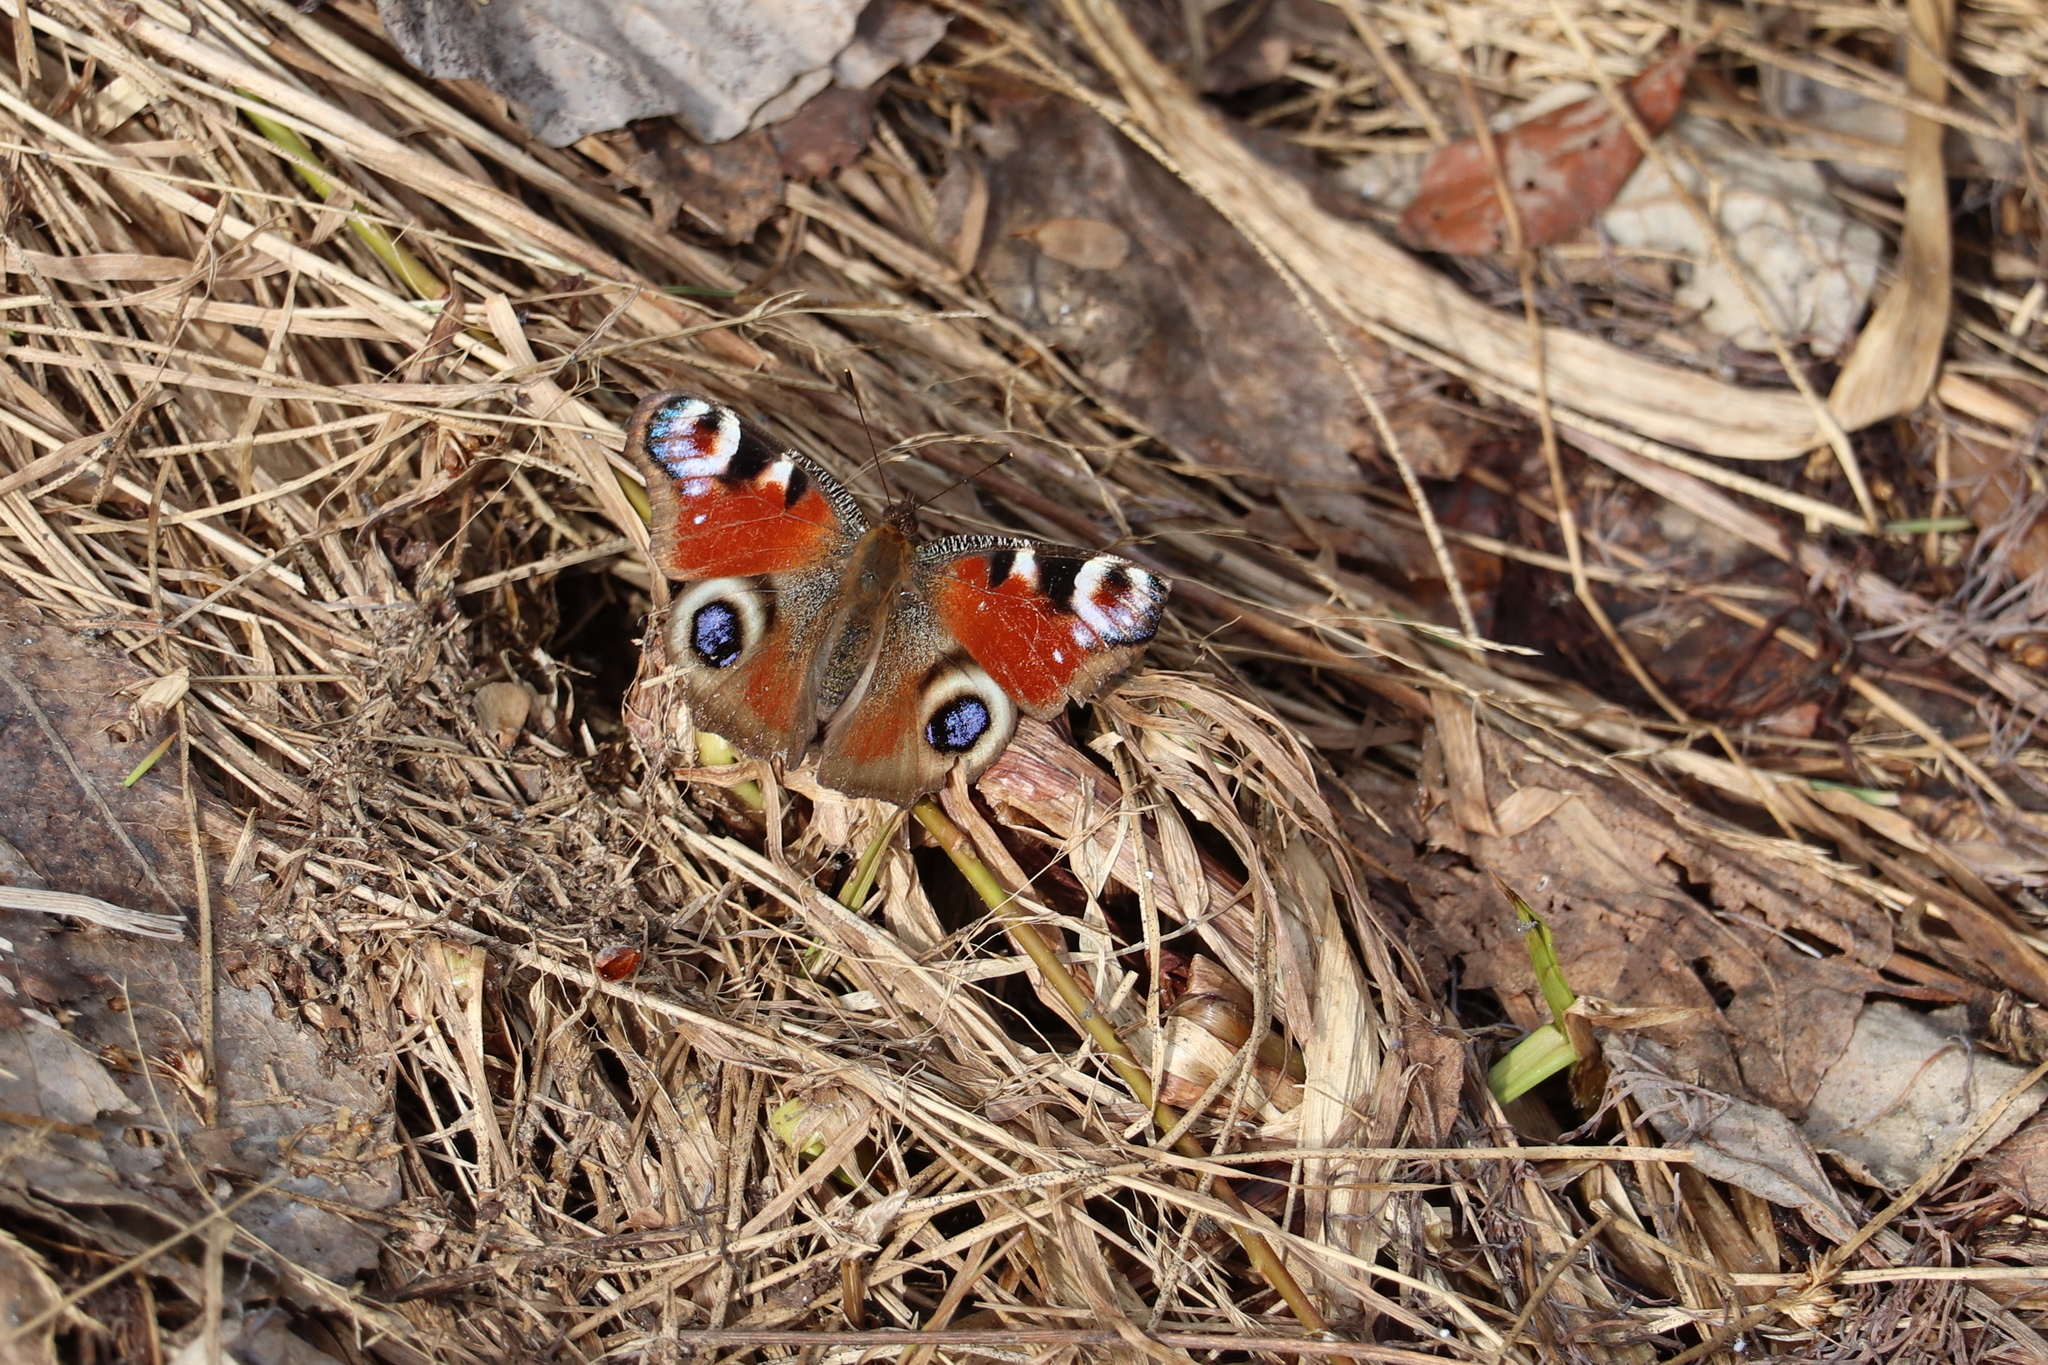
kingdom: Animalia
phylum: Arthropoda
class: Insecta
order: Lepidoptera
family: Nymphalidae
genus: Aglais
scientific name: Aglais io
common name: Peacock
